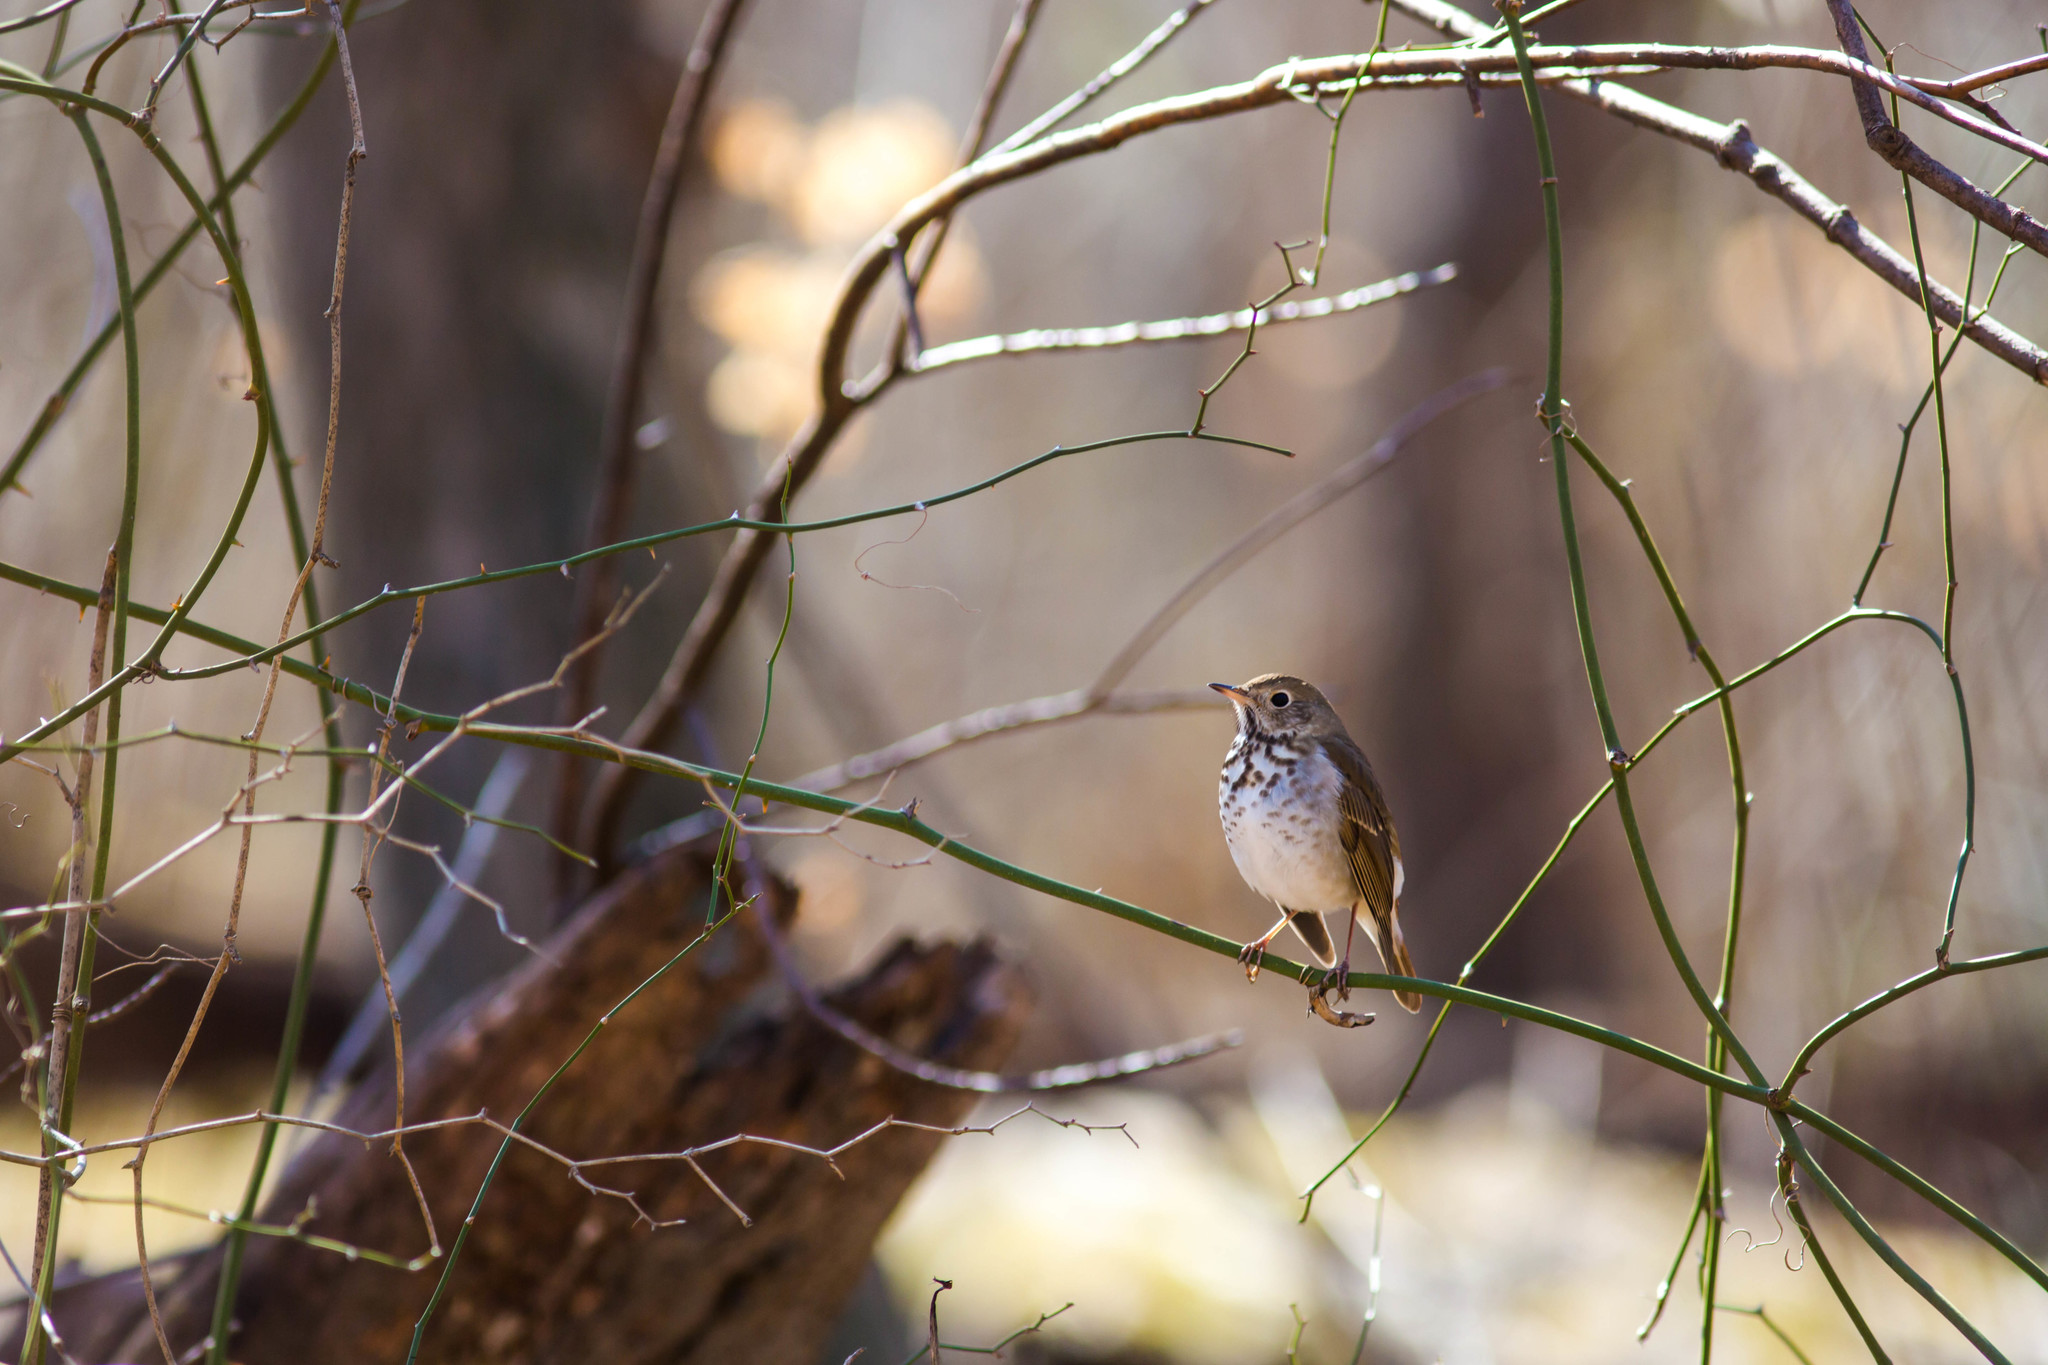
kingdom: Animalia
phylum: Chordata
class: Aves
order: Passeriformes
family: Turdidae
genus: Catharus
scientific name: Catharus guttatus
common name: Hermit thrush
